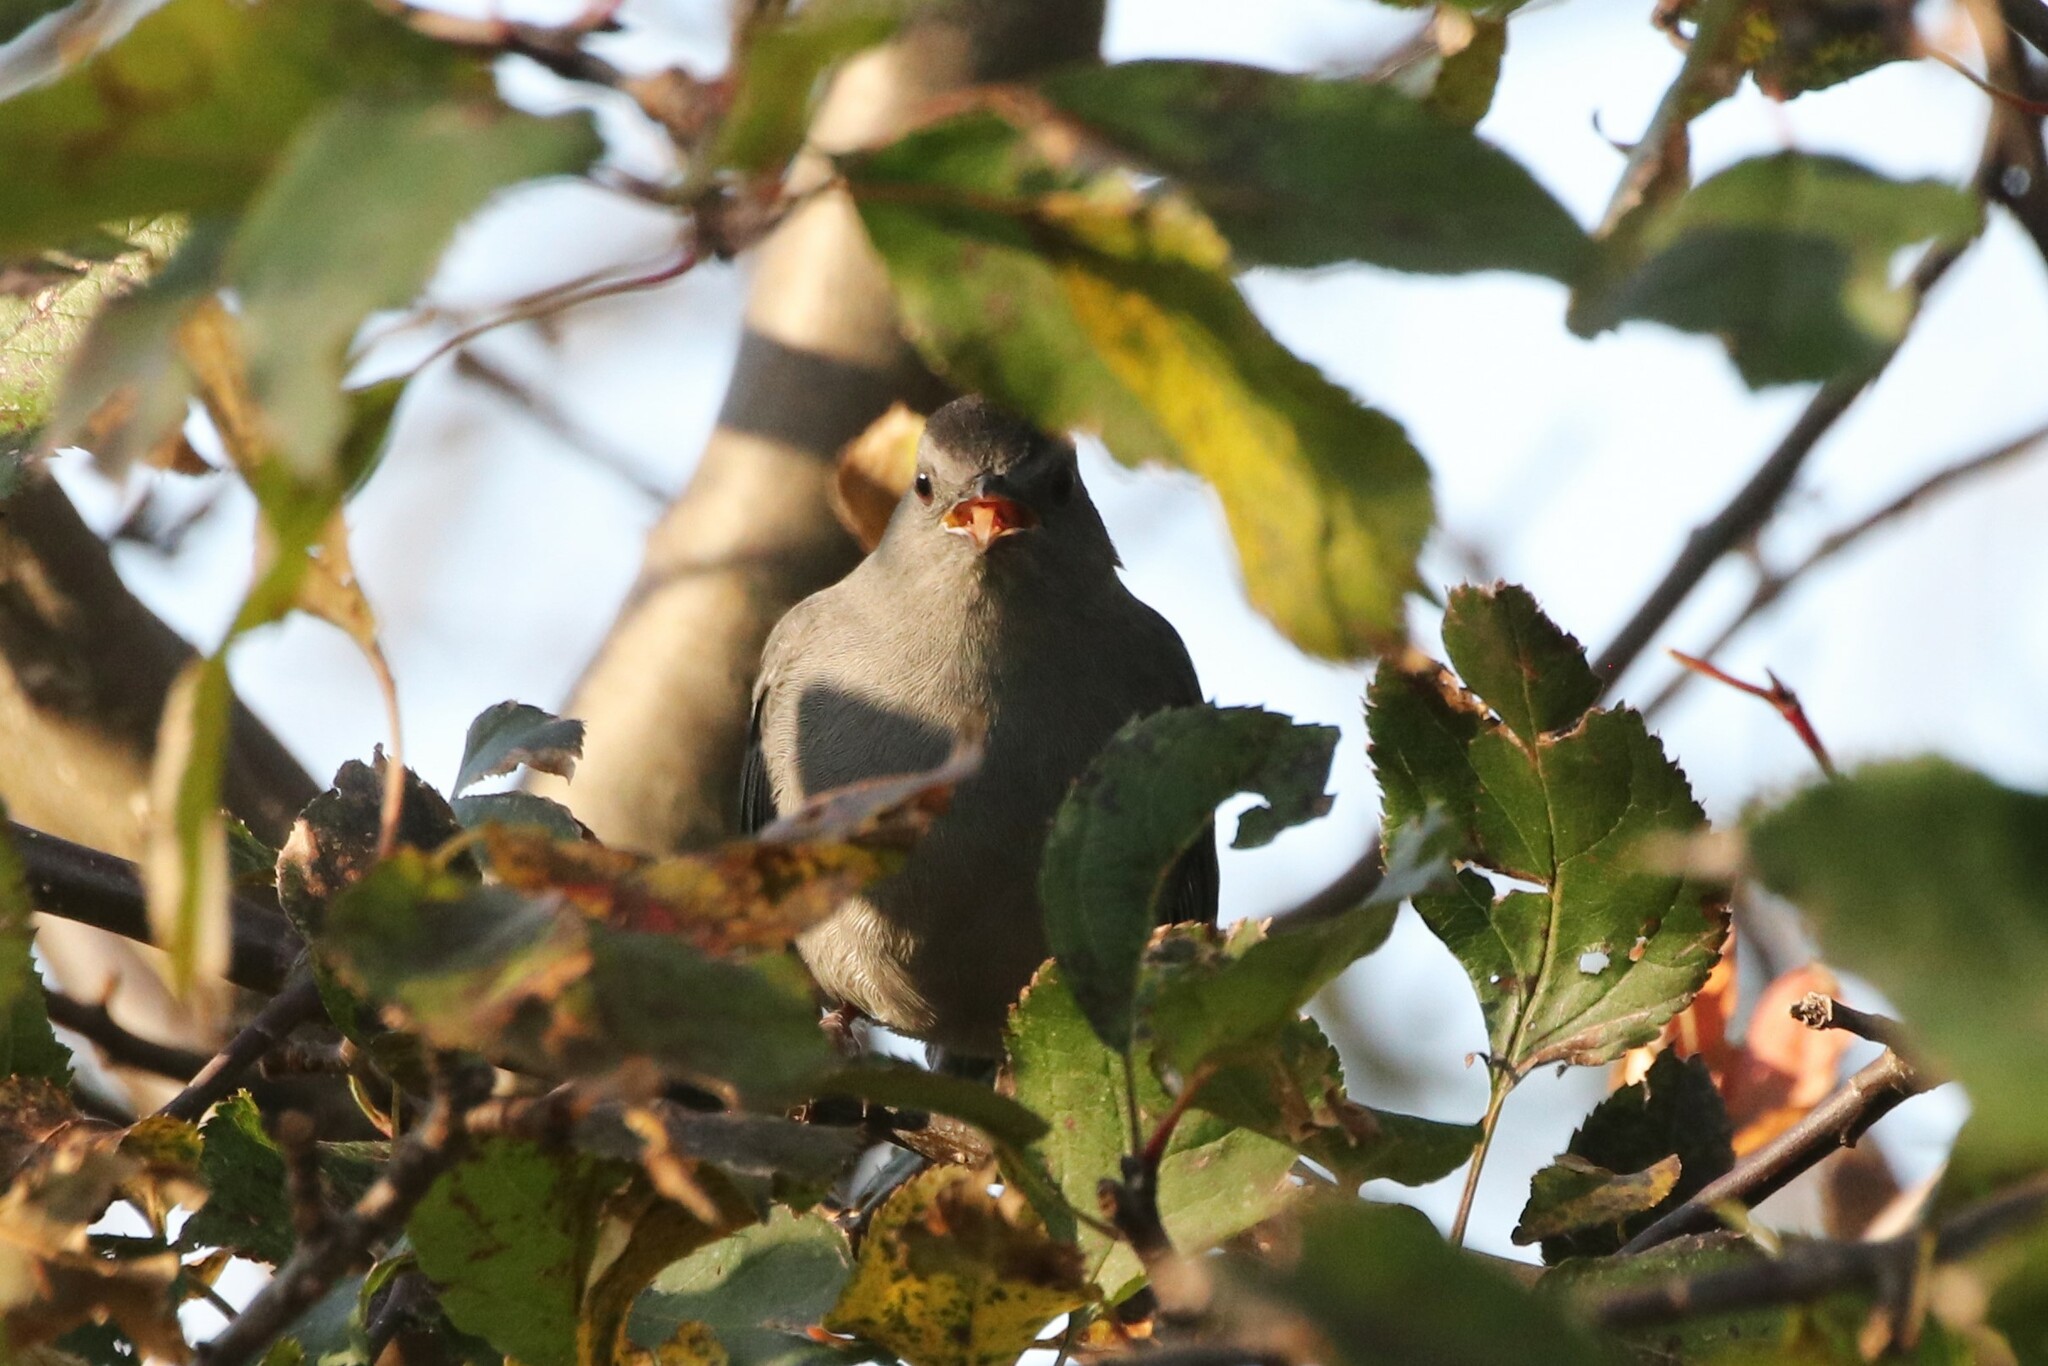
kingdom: Animalia
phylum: Chordata
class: Aves
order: Passeriformes
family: Mimidae
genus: Dumetella
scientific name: Dumetella carolinensis
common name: Gray catbird
